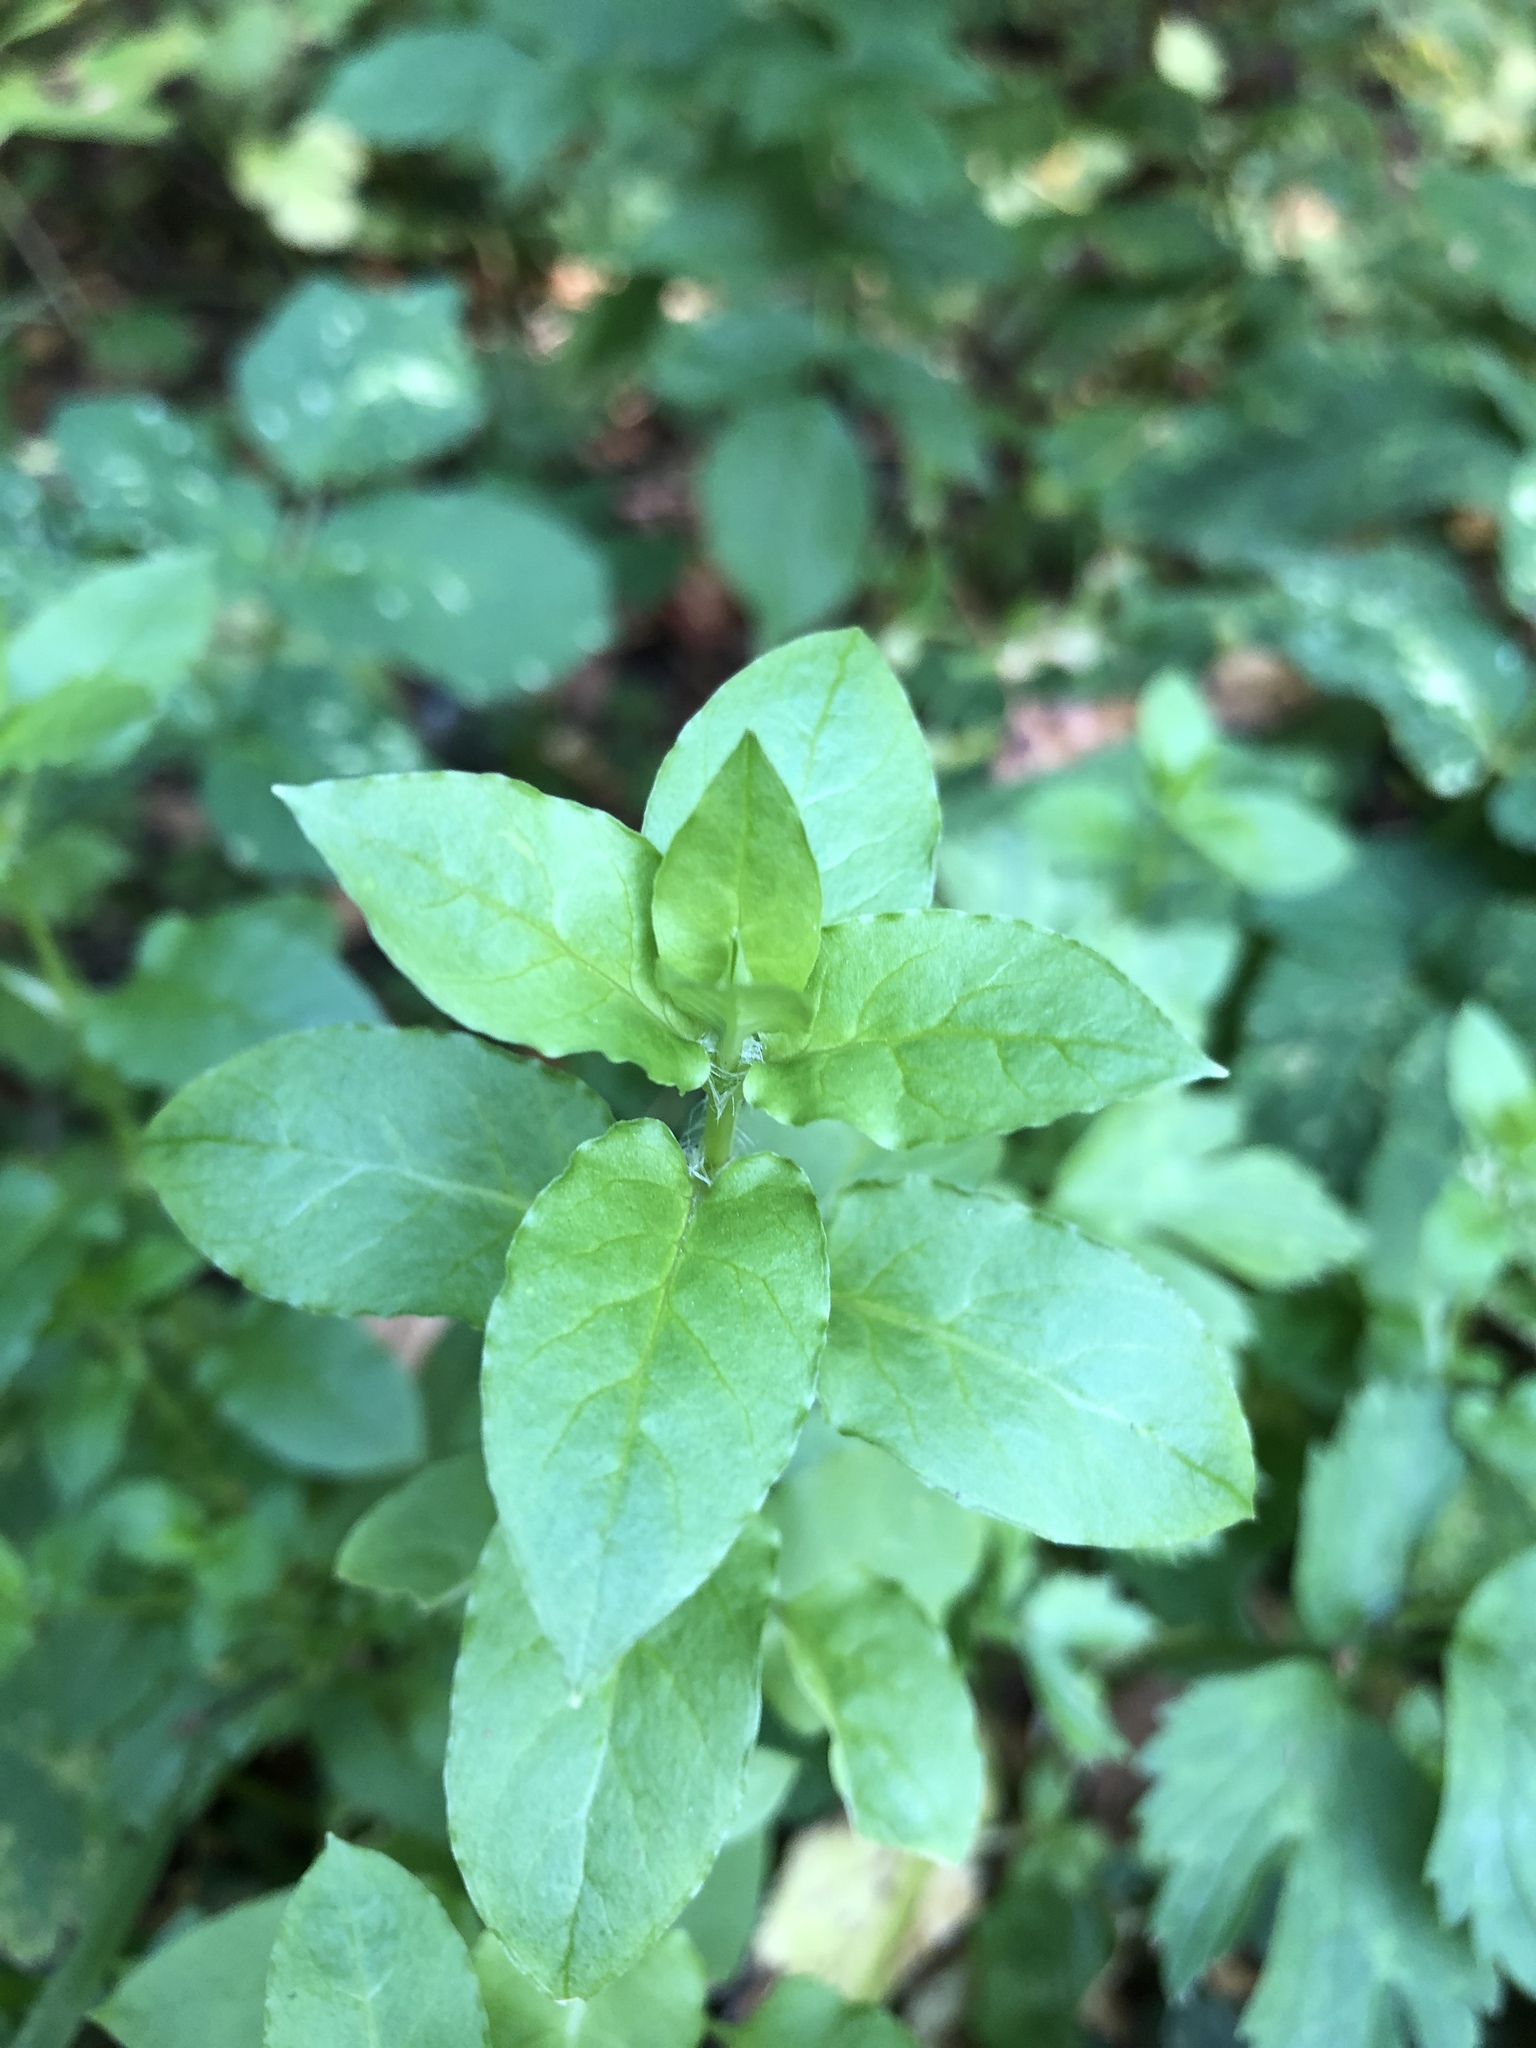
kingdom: Plantae
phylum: Tracheophyta
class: Magnoliopsida
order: Caryophyllales
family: Caryophyllaceae
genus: Stellaria
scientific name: Stellaria media
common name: Common chickweed
